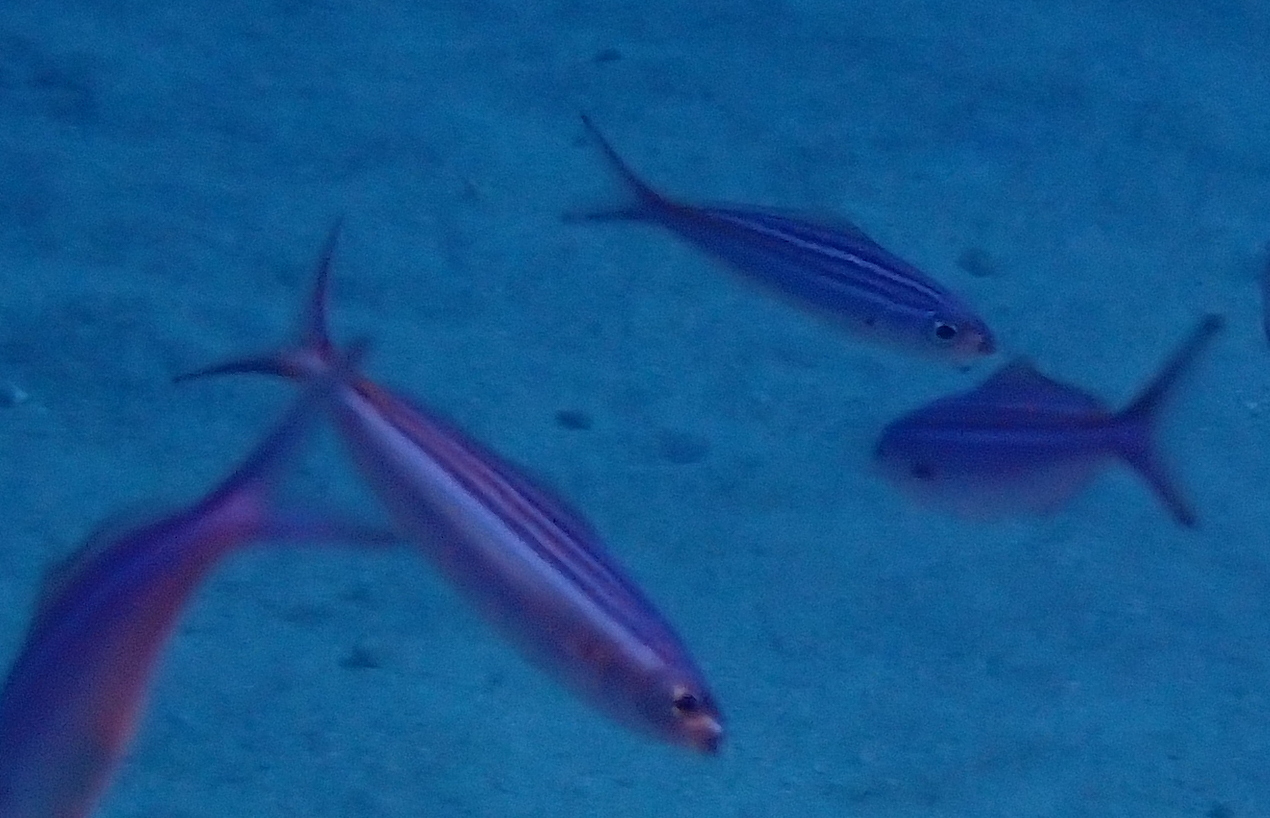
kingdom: Animalia
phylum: Chordata
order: Perciformes
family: Caesionidae
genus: Caesio
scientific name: Caesio striata
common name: Striated fusilier
